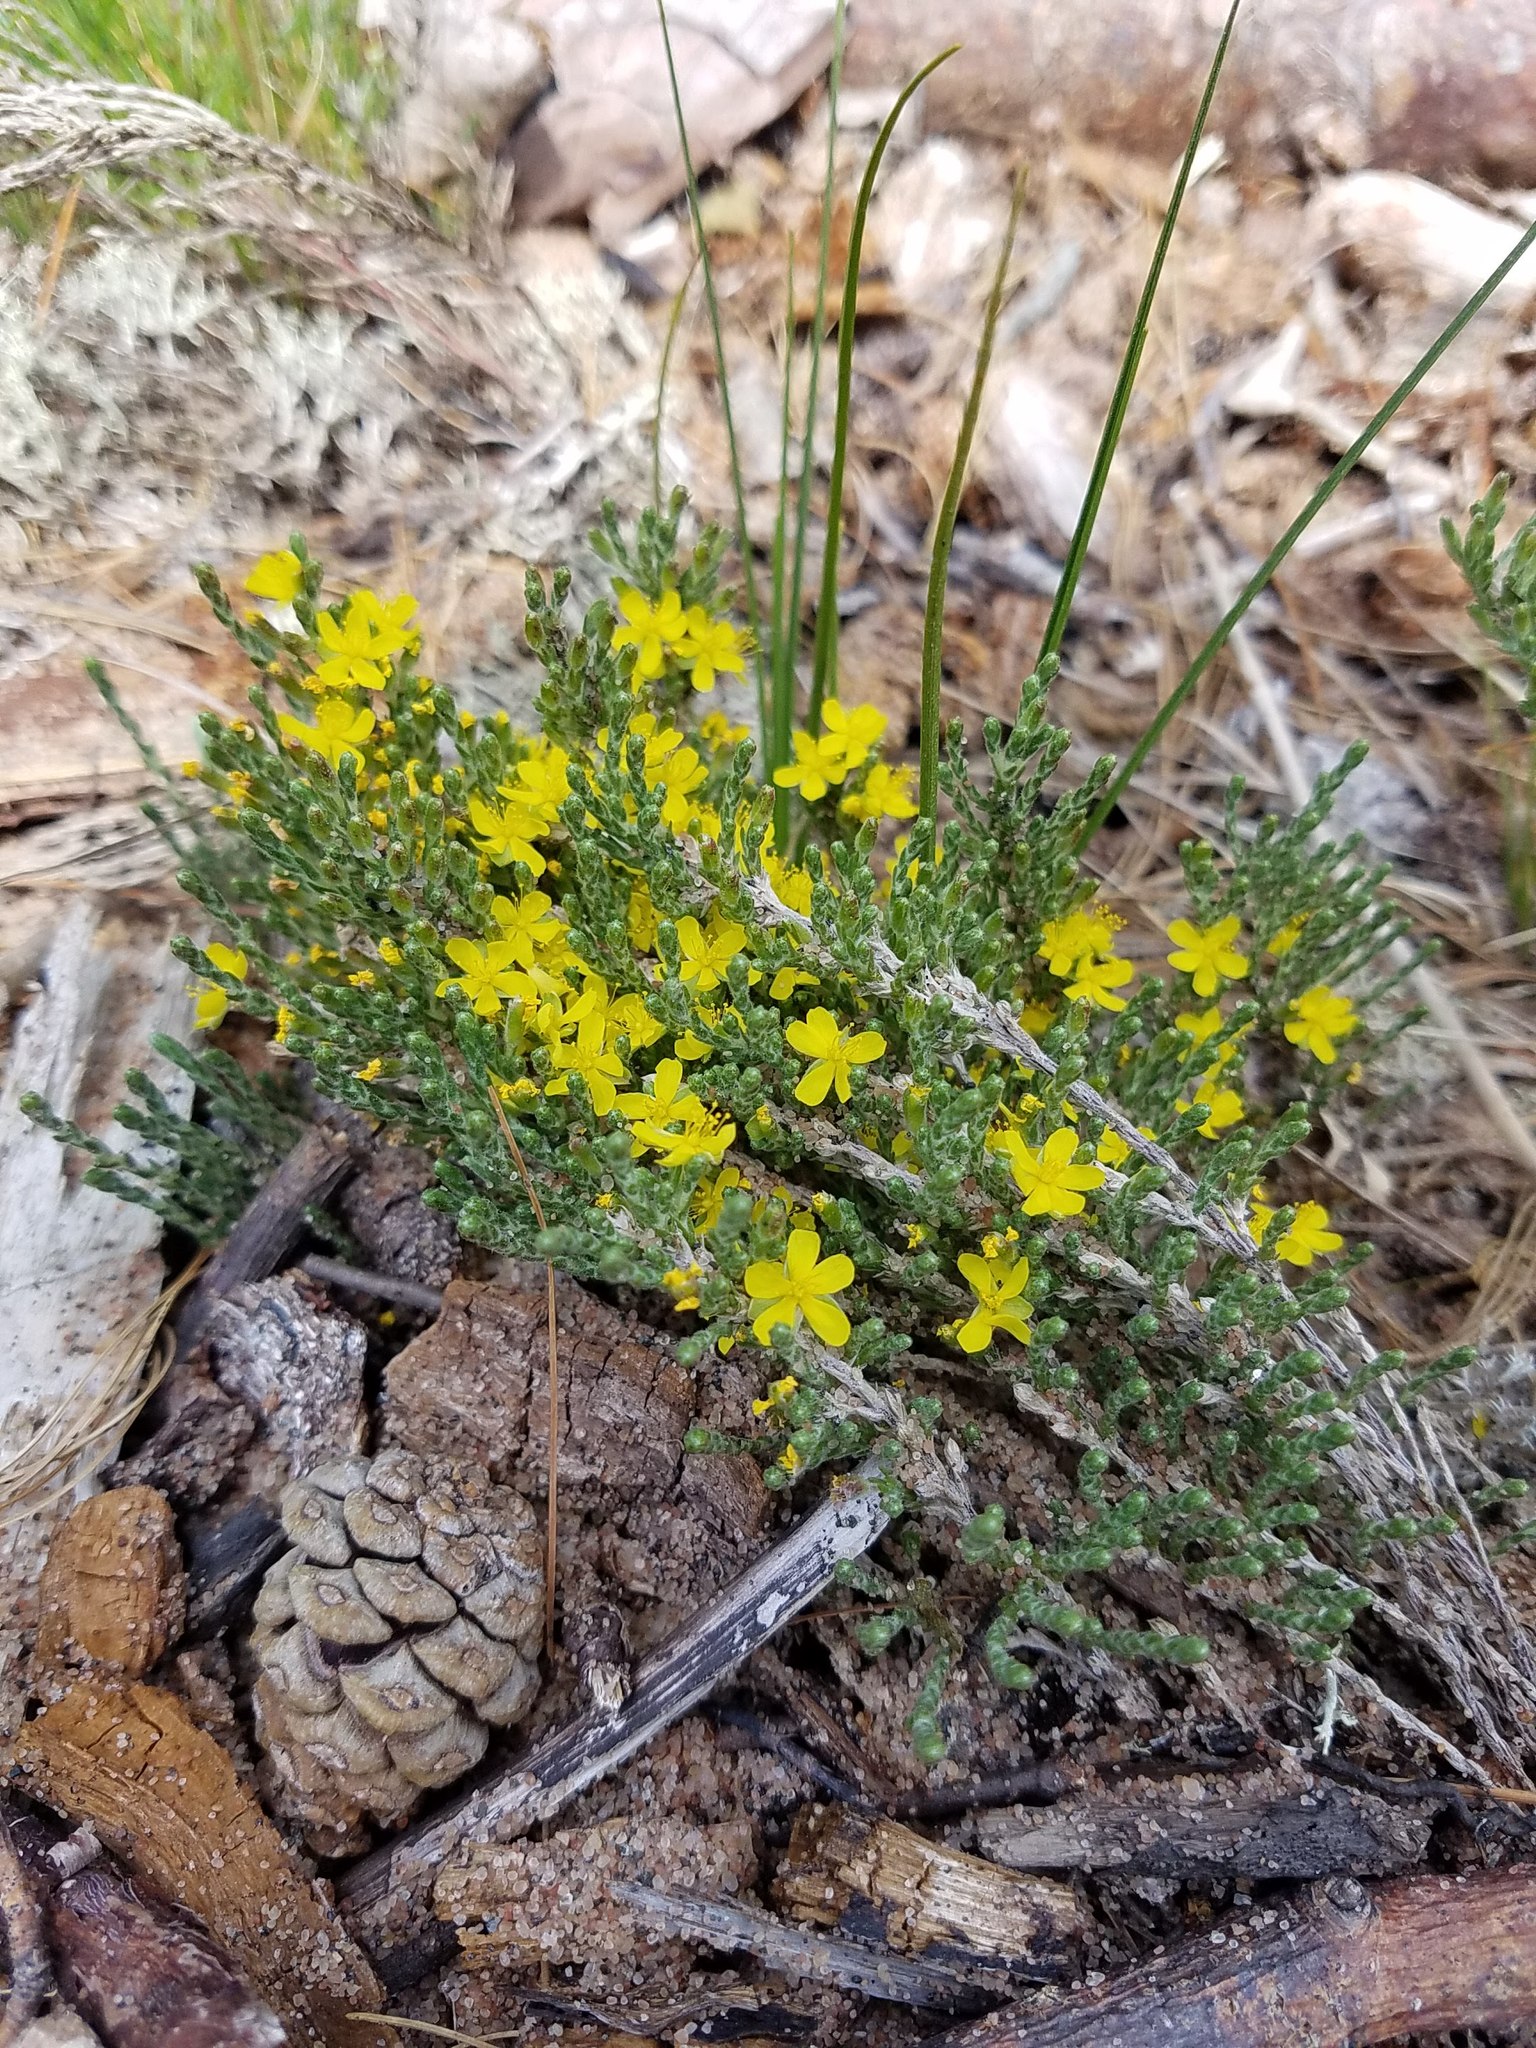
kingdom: Plantae
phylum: Tracheophyta
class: Magnoliopsida
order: Malvales
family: Cistaceae
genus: Hudsonia
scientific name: Hudsonia tomentosa
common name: Beach-heath
